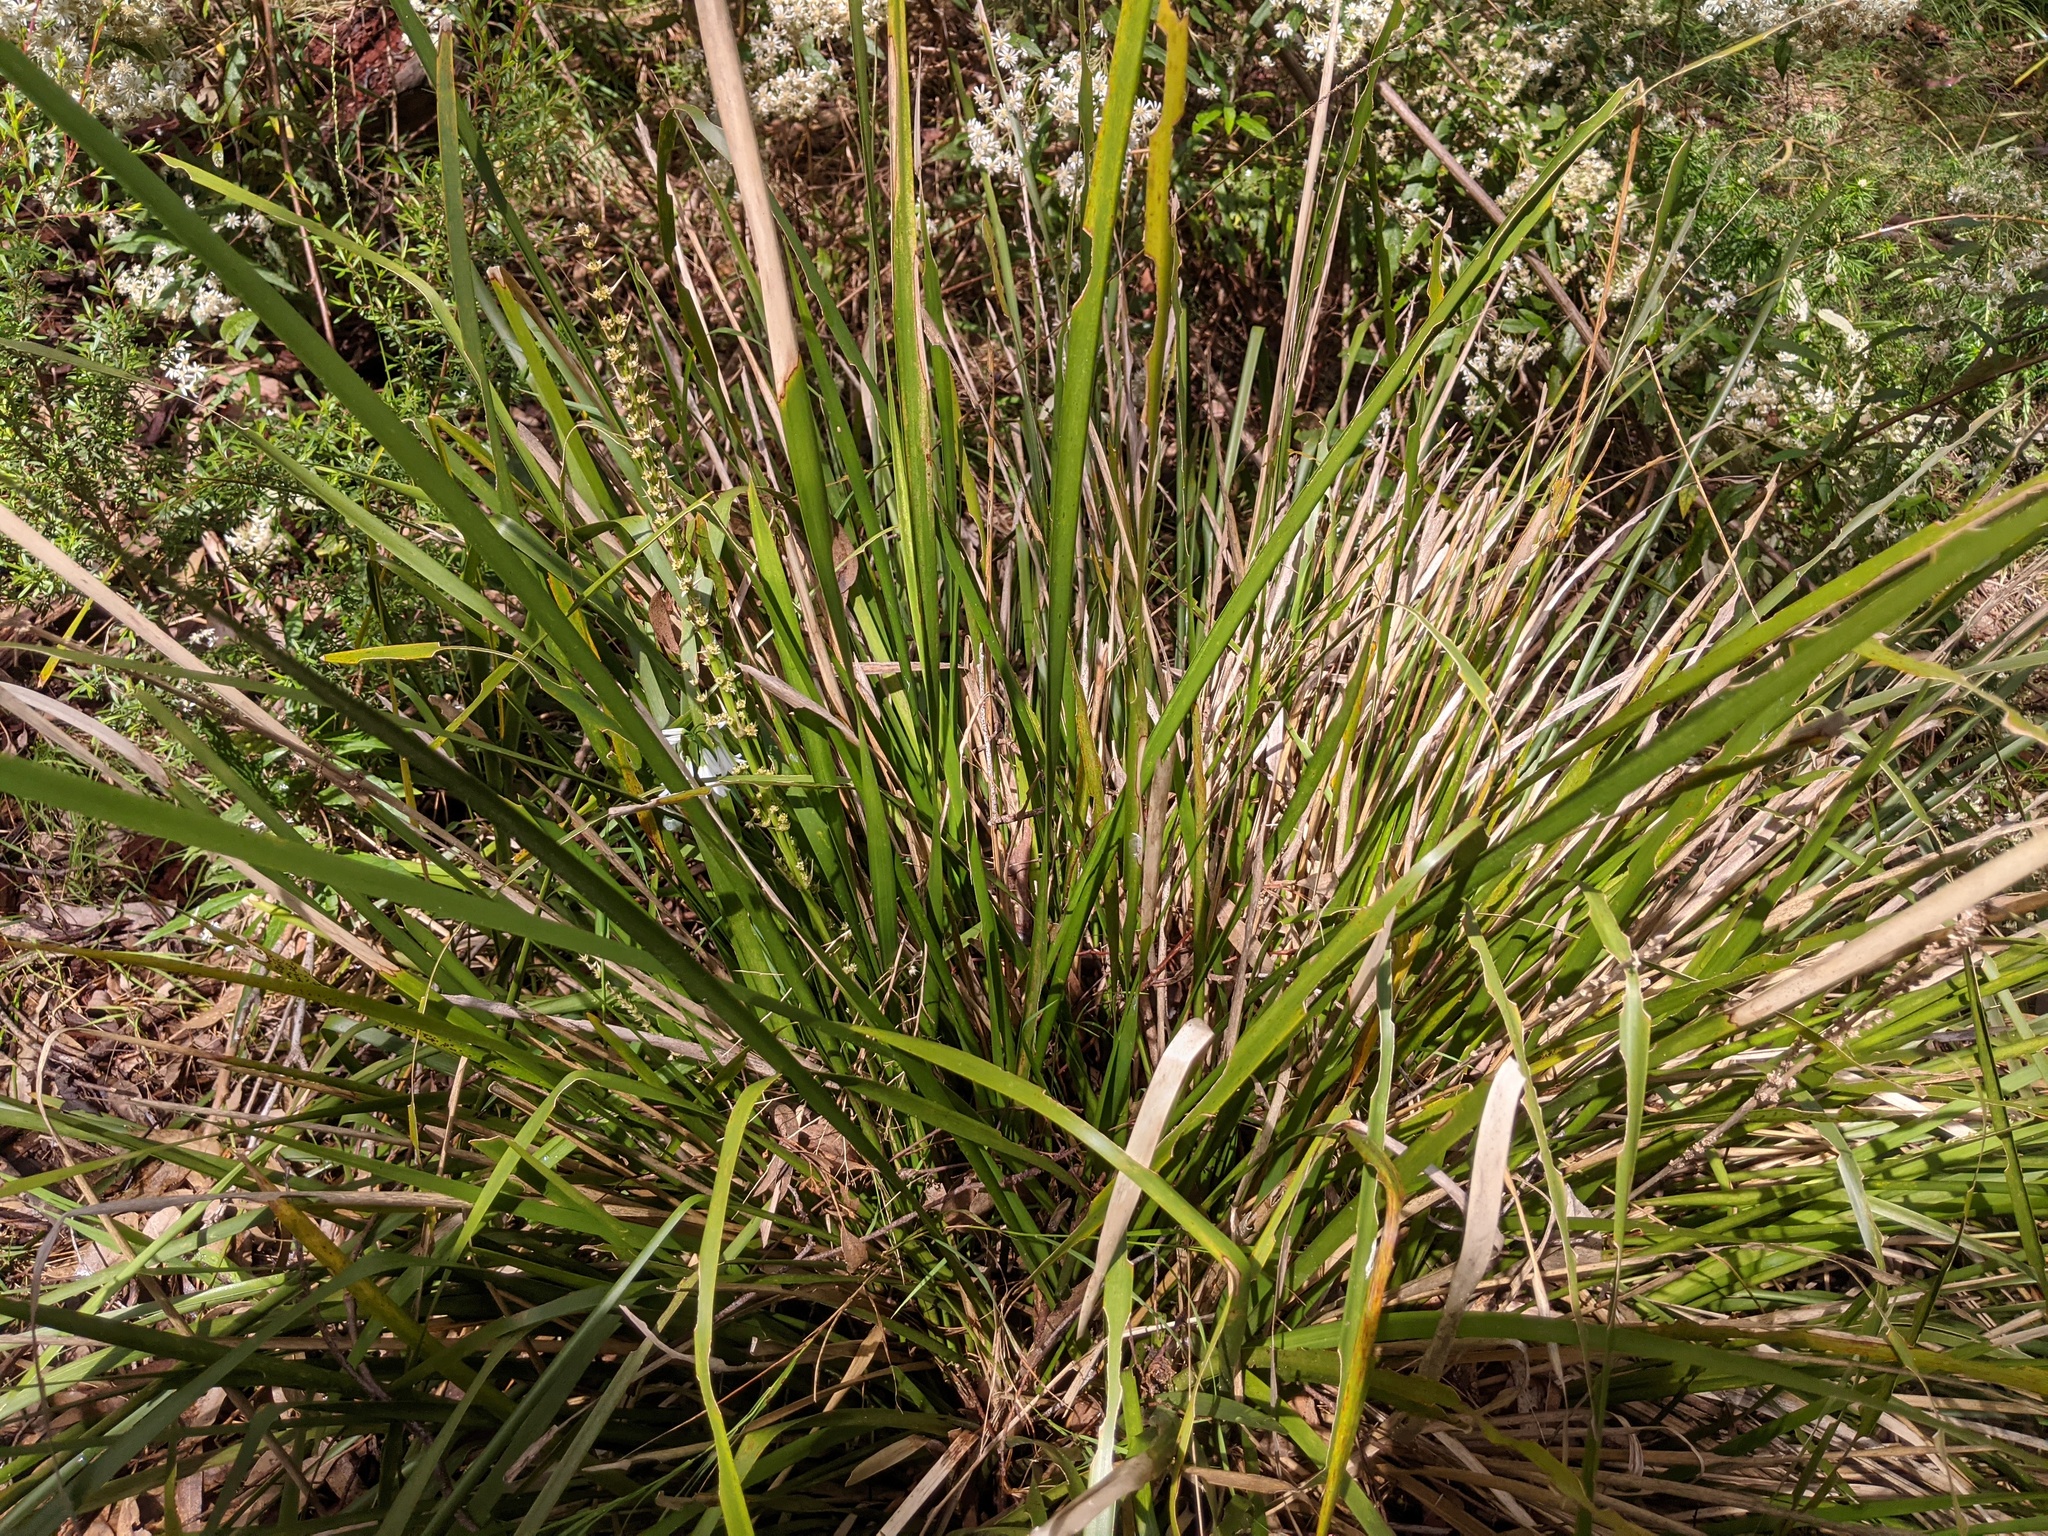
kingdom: Plantae
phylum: Tracheophyta
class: Liliopsida
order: Asparagales
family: Asparagaceae
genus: Lomandra
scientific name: Lomandra longifolia
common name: Longleaf mat-rush
